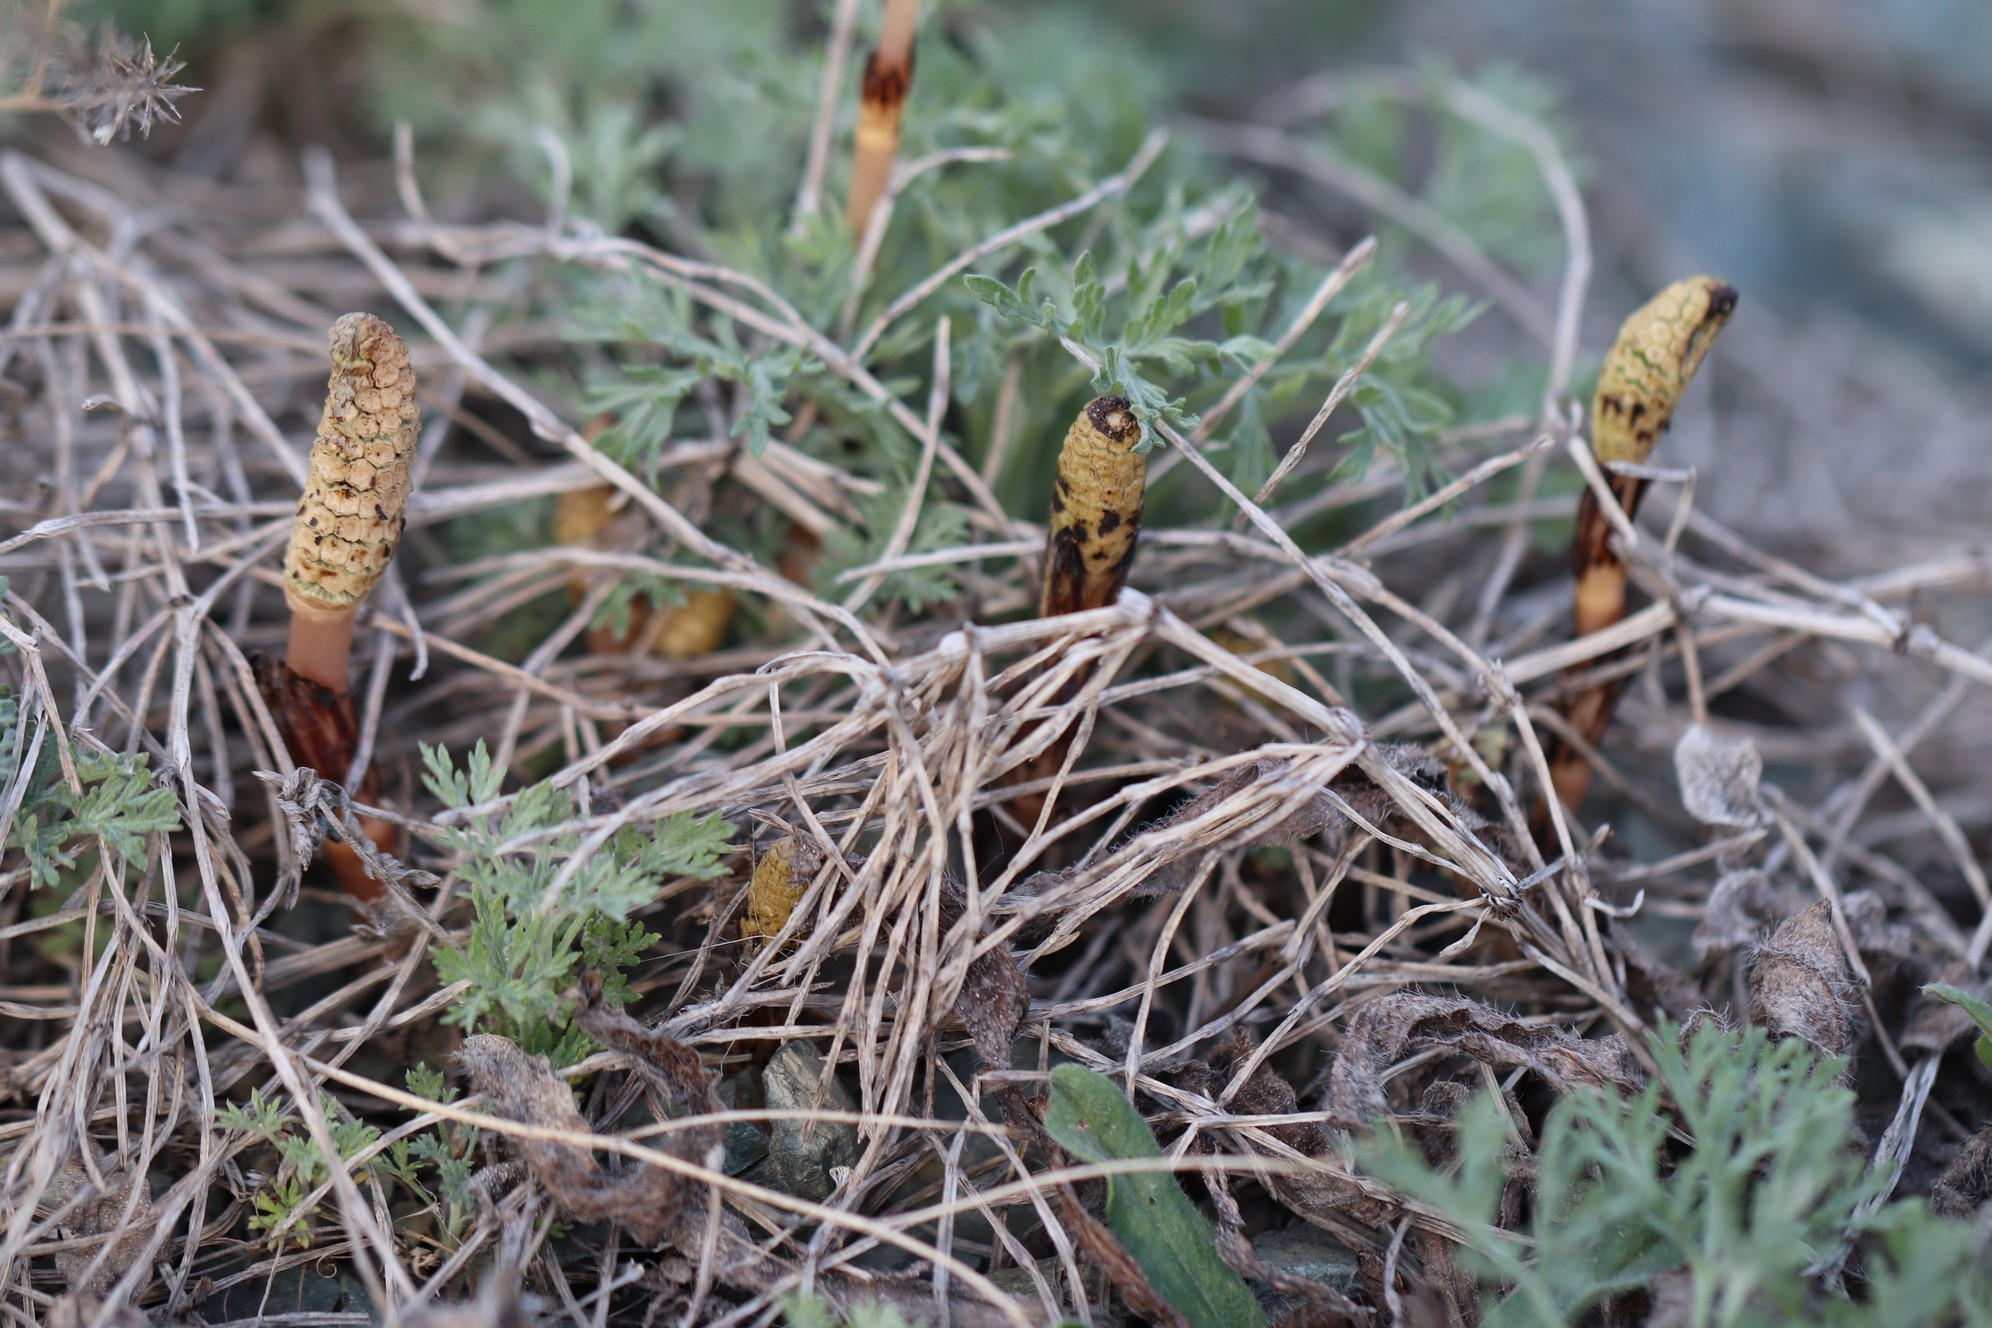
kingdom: Plantae
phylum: Tracheophyta
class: Polypodiopsida
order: Equisetales
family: Equisetaceae
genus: Equisetum
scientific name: Equisetum arvense
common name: Field horsetail
